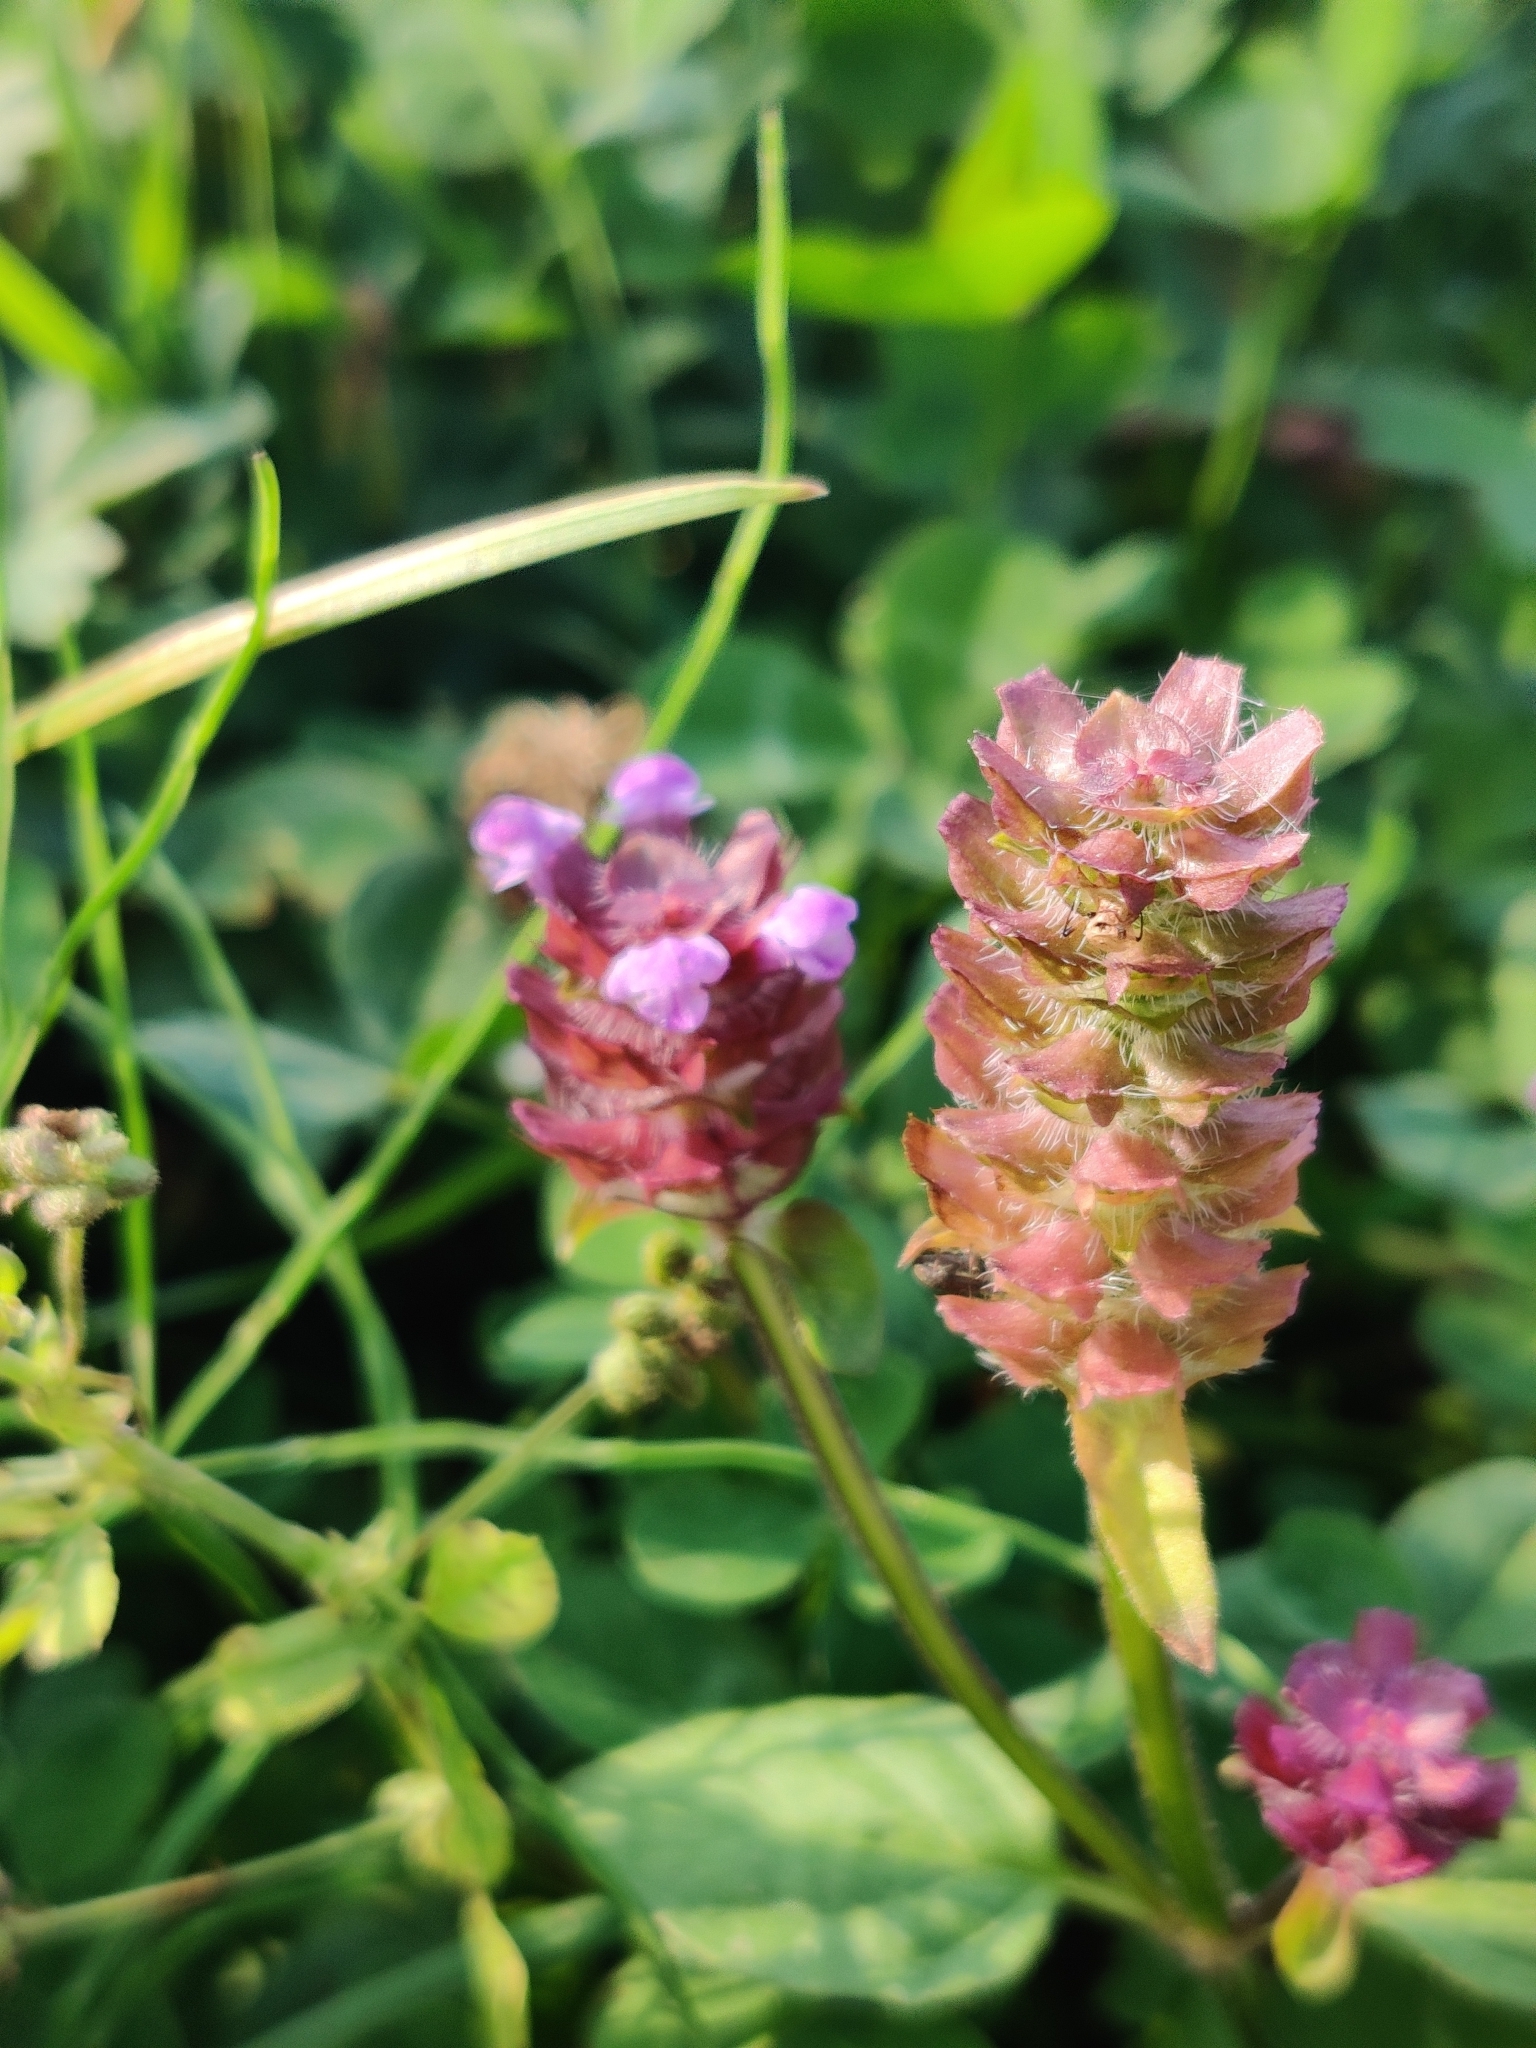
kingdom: Plantae
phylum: Tracheophyta
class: Magnoliopsida
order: Lamiales
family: Lamiaceae
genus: Prunella
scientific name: Prunella vulgaris
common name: Heal-all
